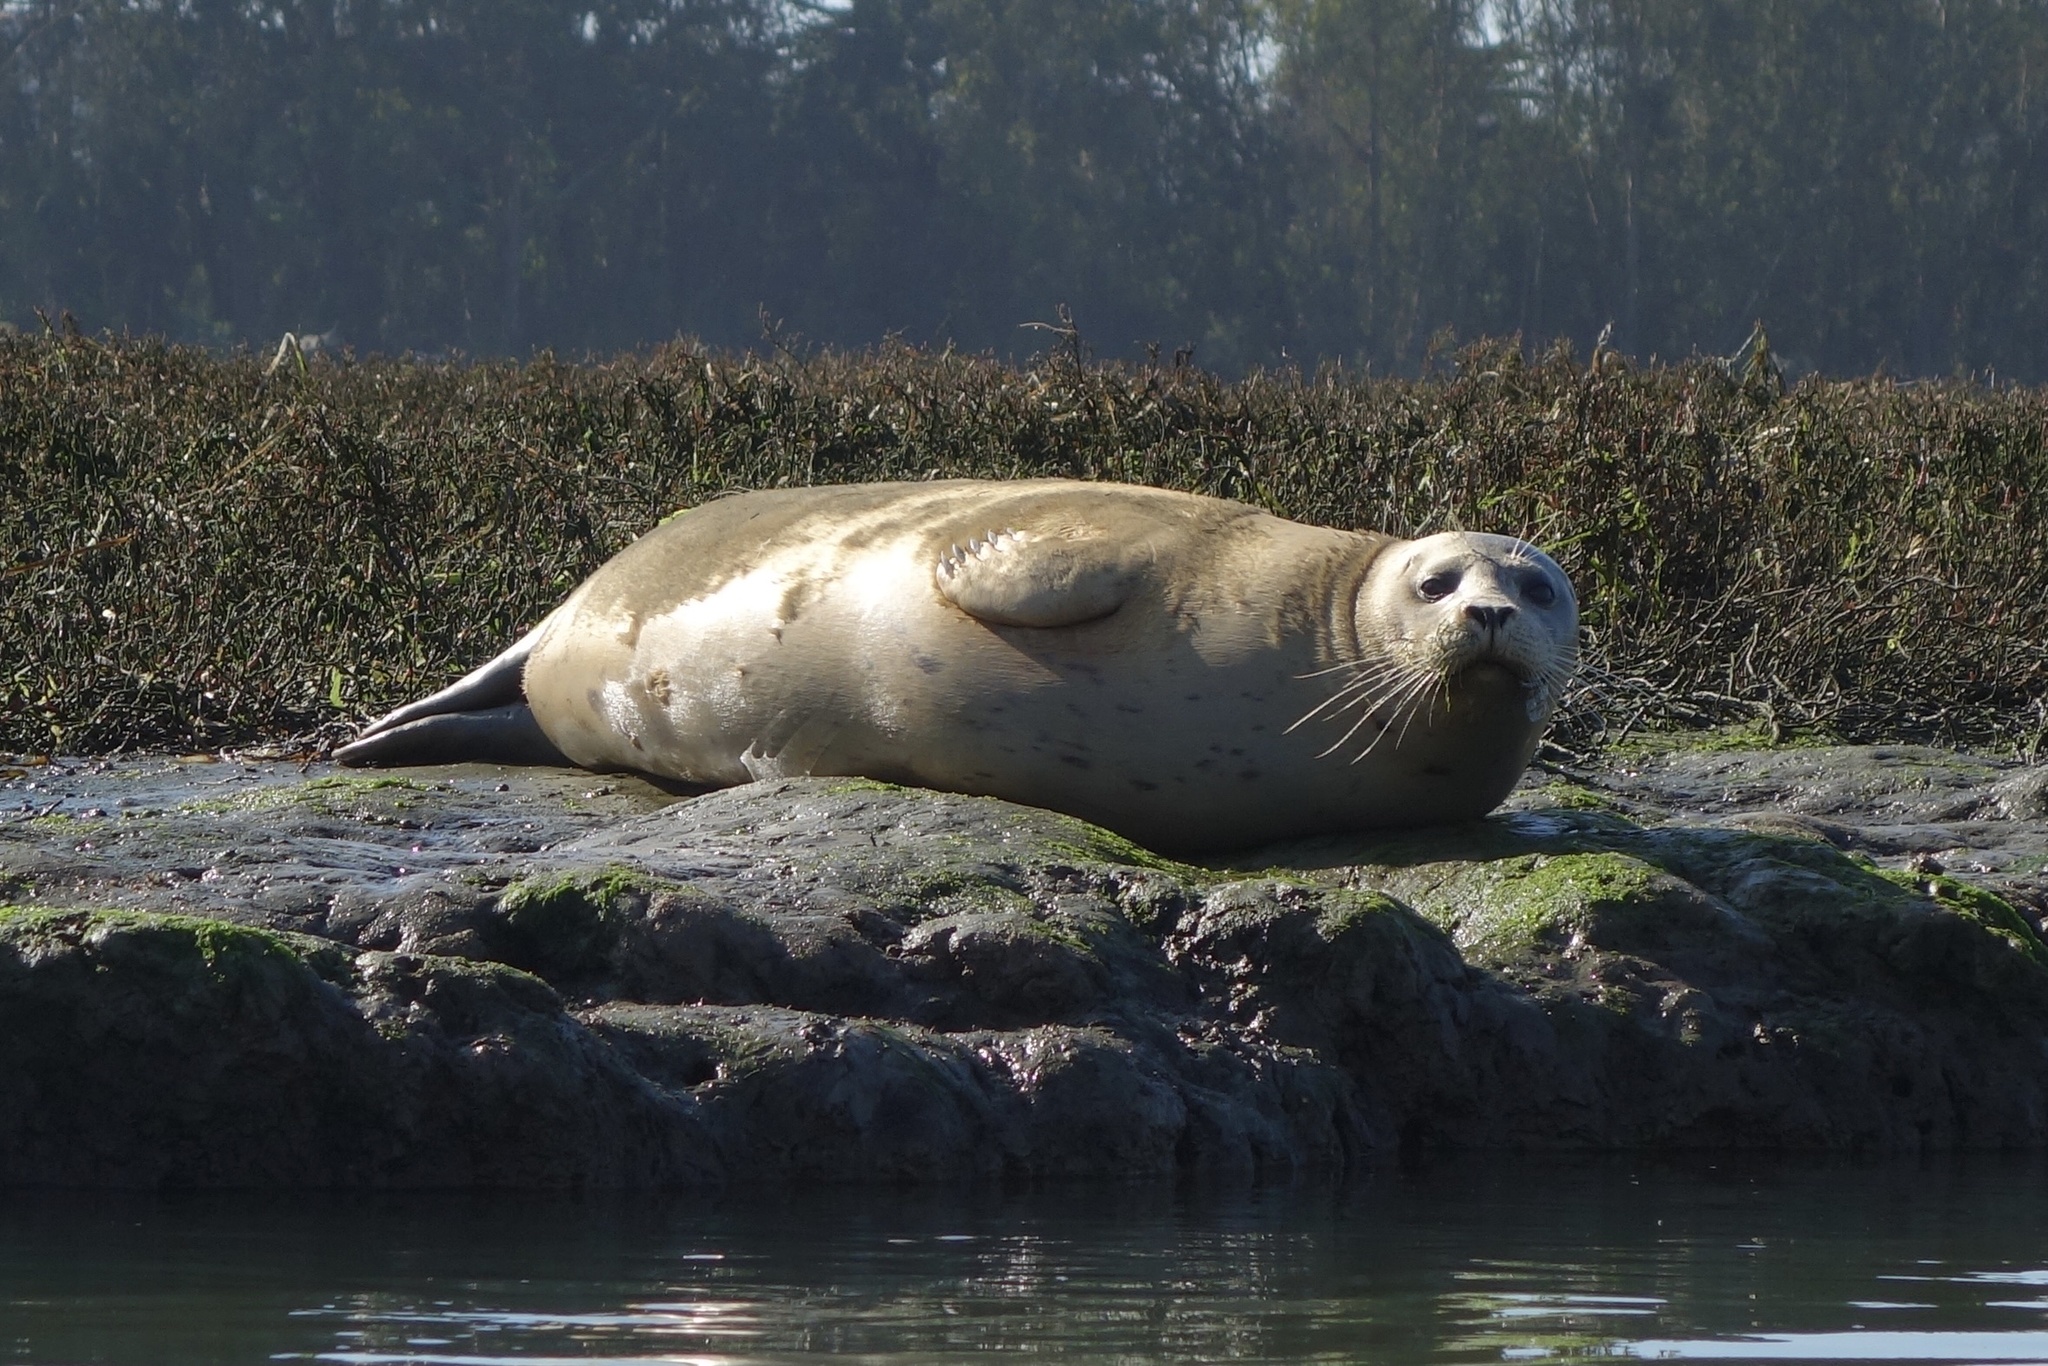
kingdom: Animalia
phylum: Chordata
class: Mammalia
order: Carnivora
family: Phocidae
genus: Phoca
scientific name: Phoca vitulina
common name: Harbor seal
